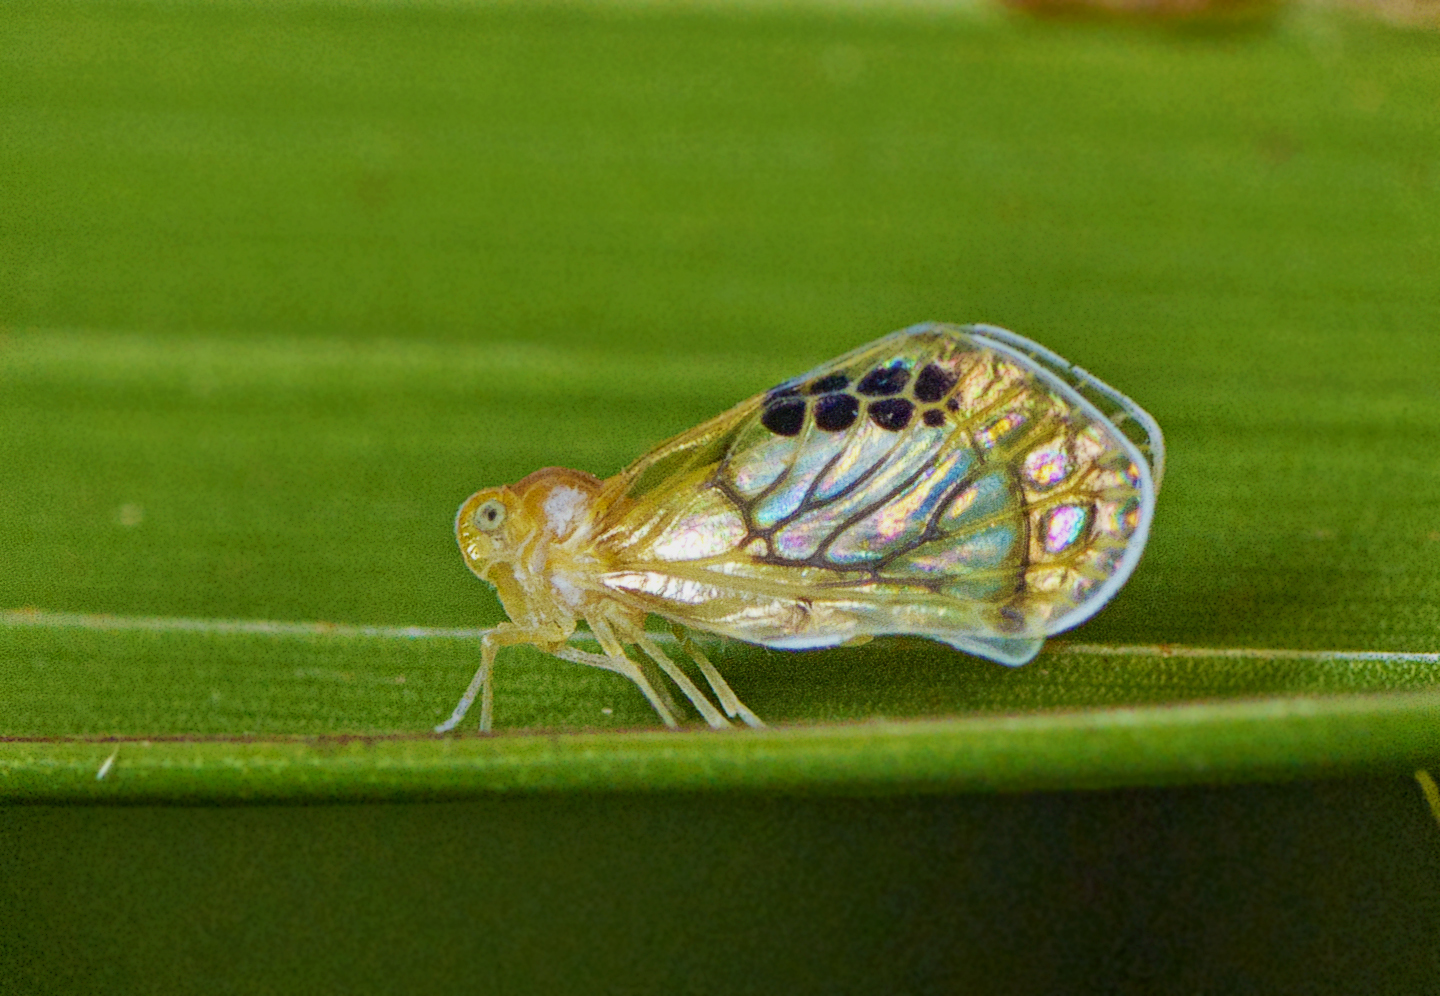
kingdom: Animalia
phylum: Arthropoda
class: Insecta
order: Hemiptera
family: Derbidae
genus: Rhotana
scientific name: Rhotana gressittorum
